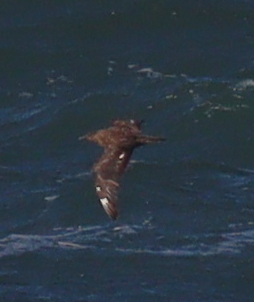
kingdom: Animalia
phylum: Chordata
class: Aves
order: Charadriiformes
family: Stercorariidae
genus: Stercorarius
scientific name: Stercorarius skua
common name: Great skua
